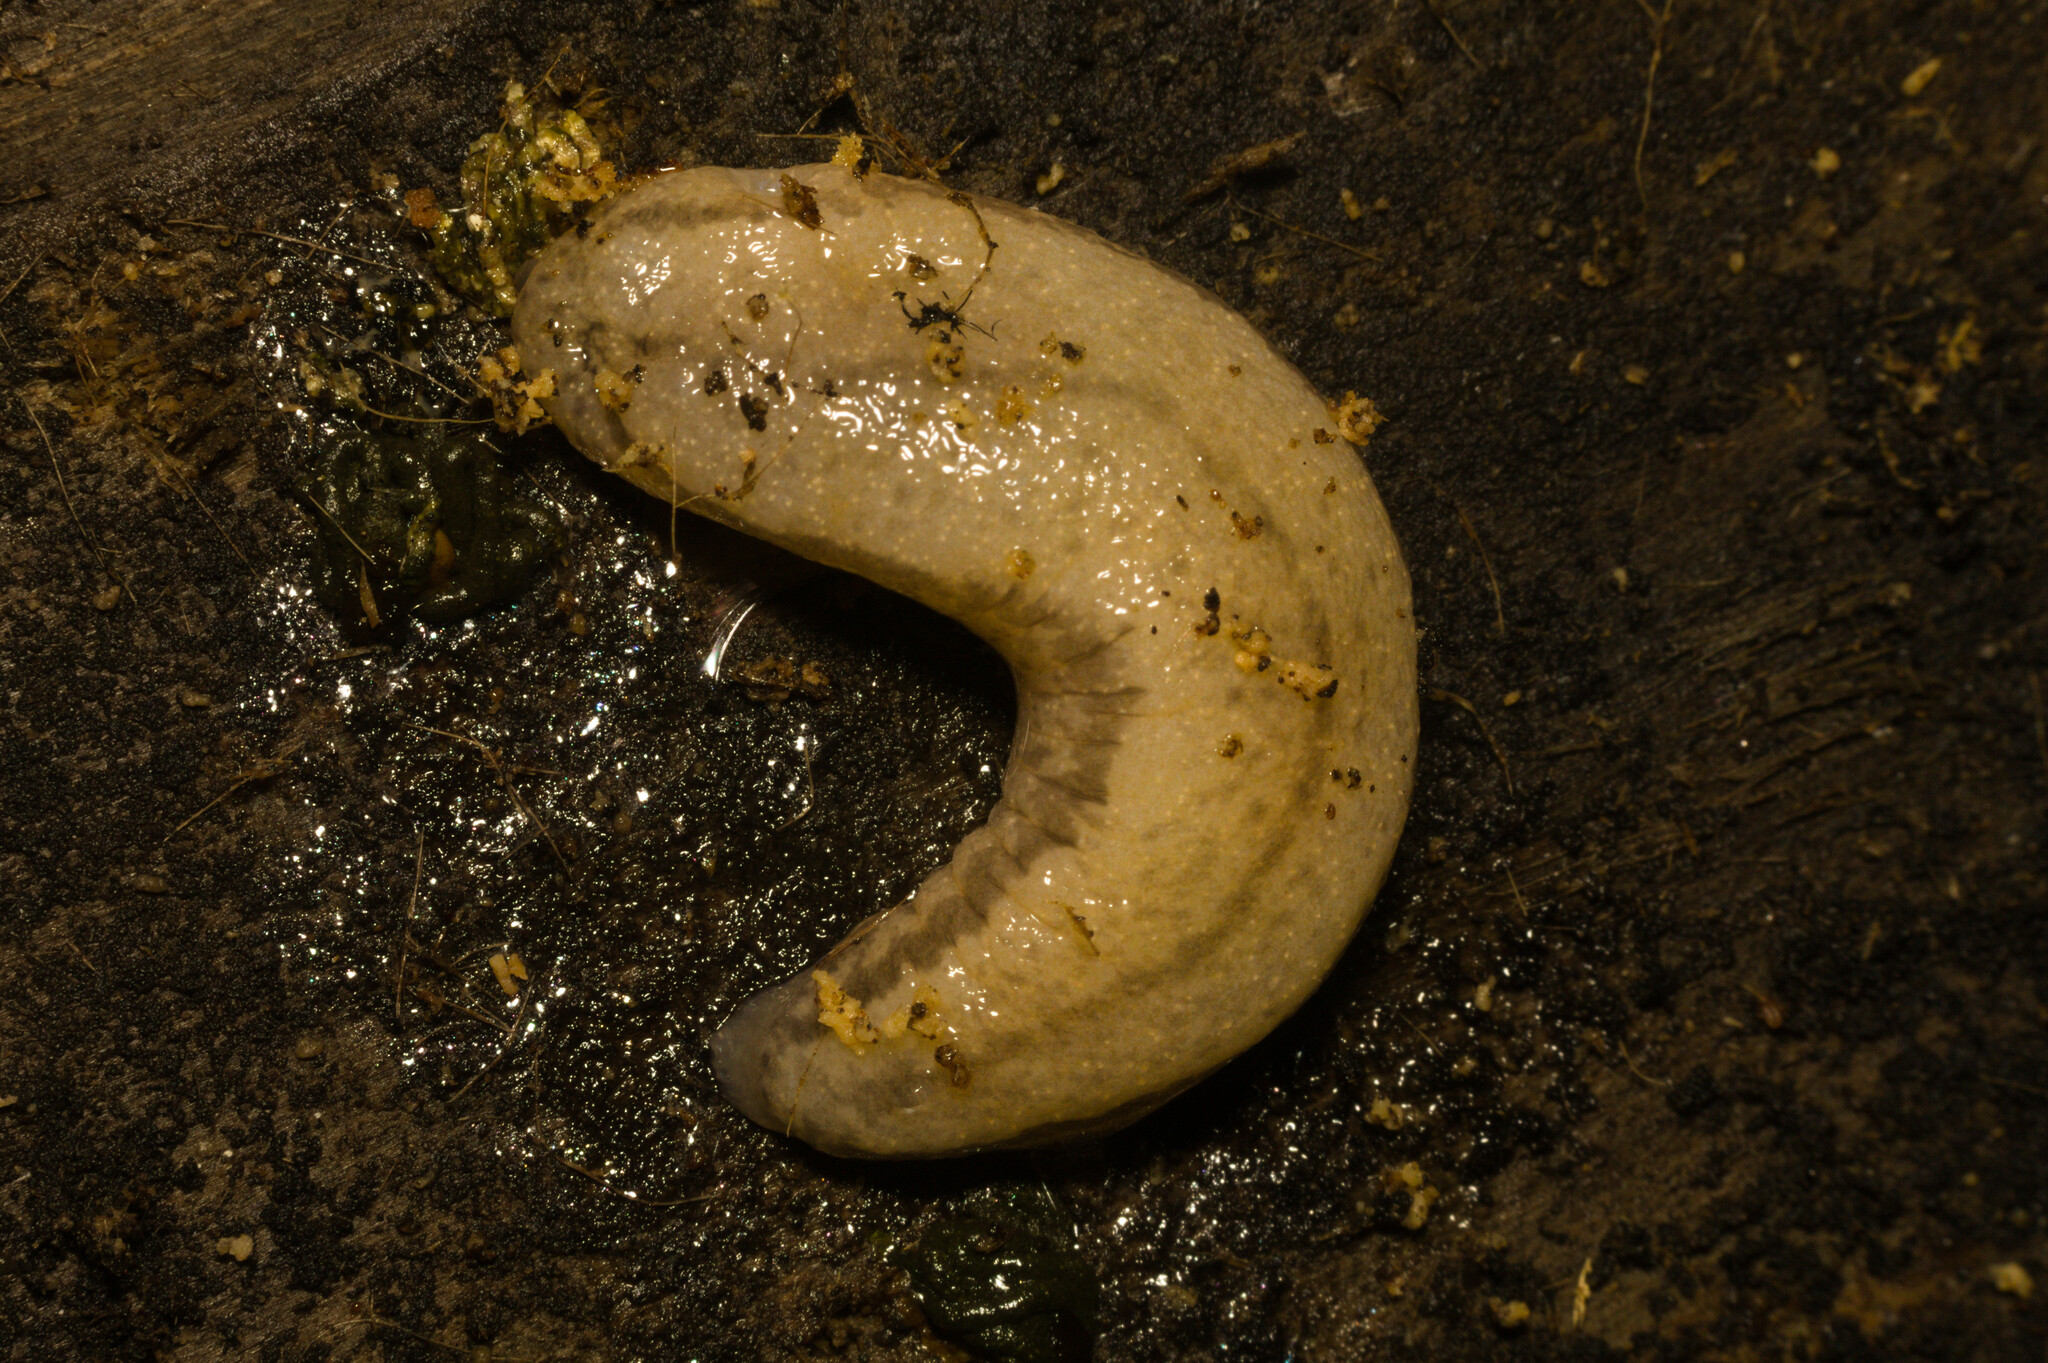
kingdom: Animalia
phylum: Mollusca
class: Gastropoda
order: Stylommatophora
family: Philomycidae
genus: Meghimatium
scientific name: Meghimatium pictum
